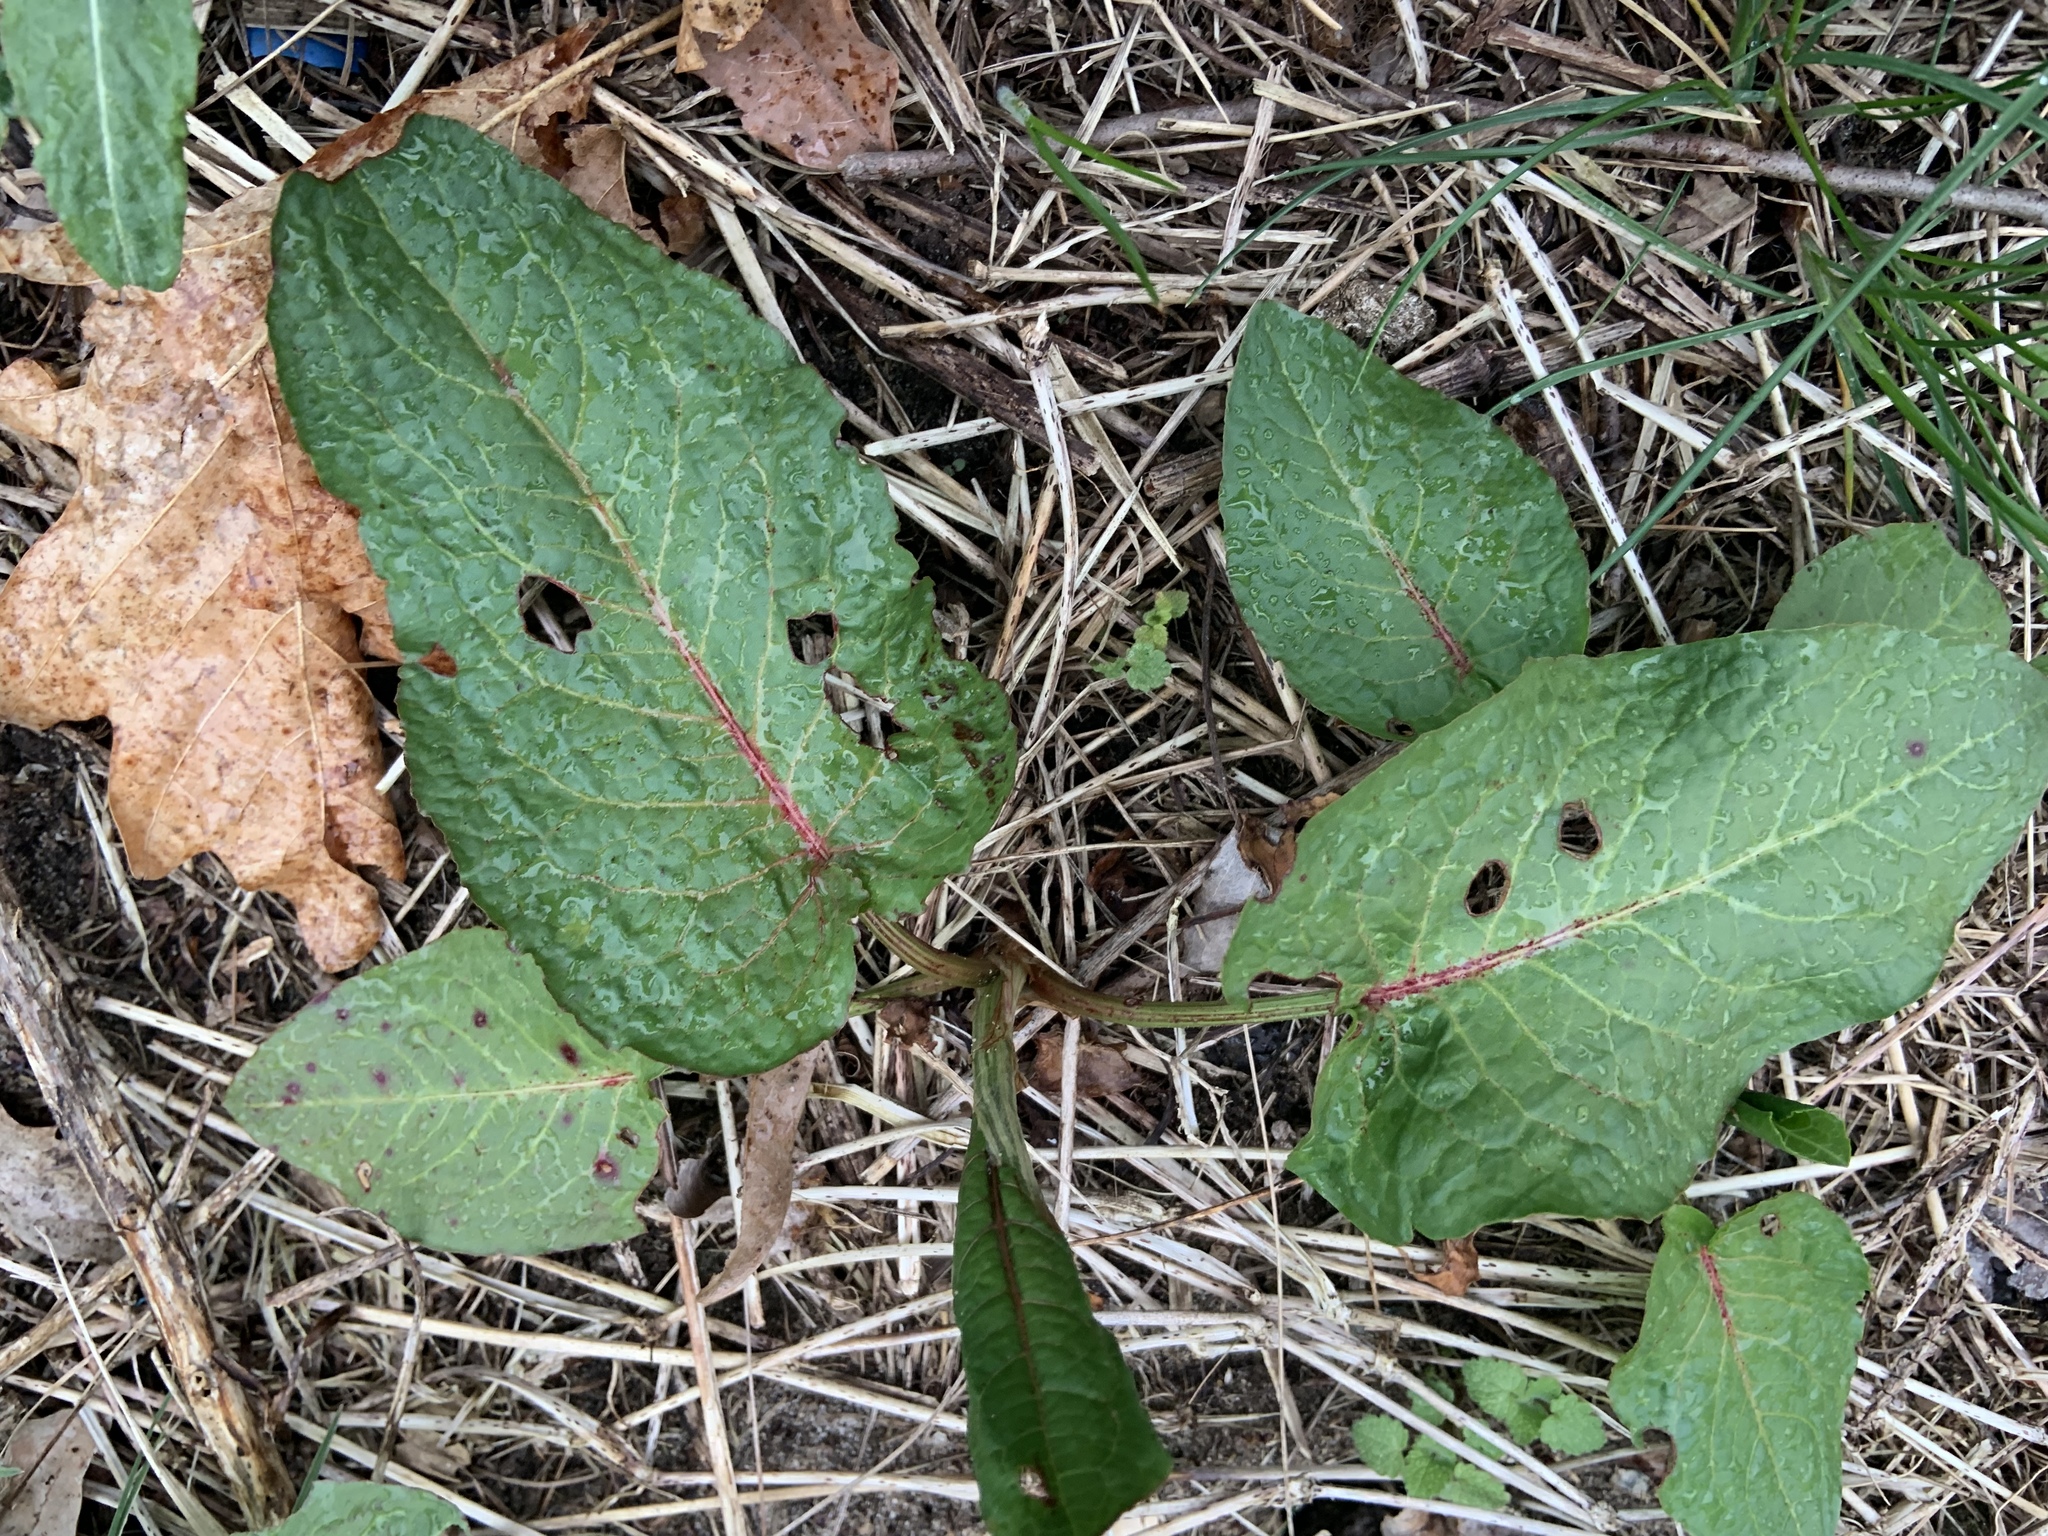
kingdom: Plantae
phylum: Tracheophyta
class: Magnoliopsida
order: Caryophyllales
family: Polygonaceae
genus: Rumex
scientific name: Rumex obtusifolius
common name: Bitter dock
